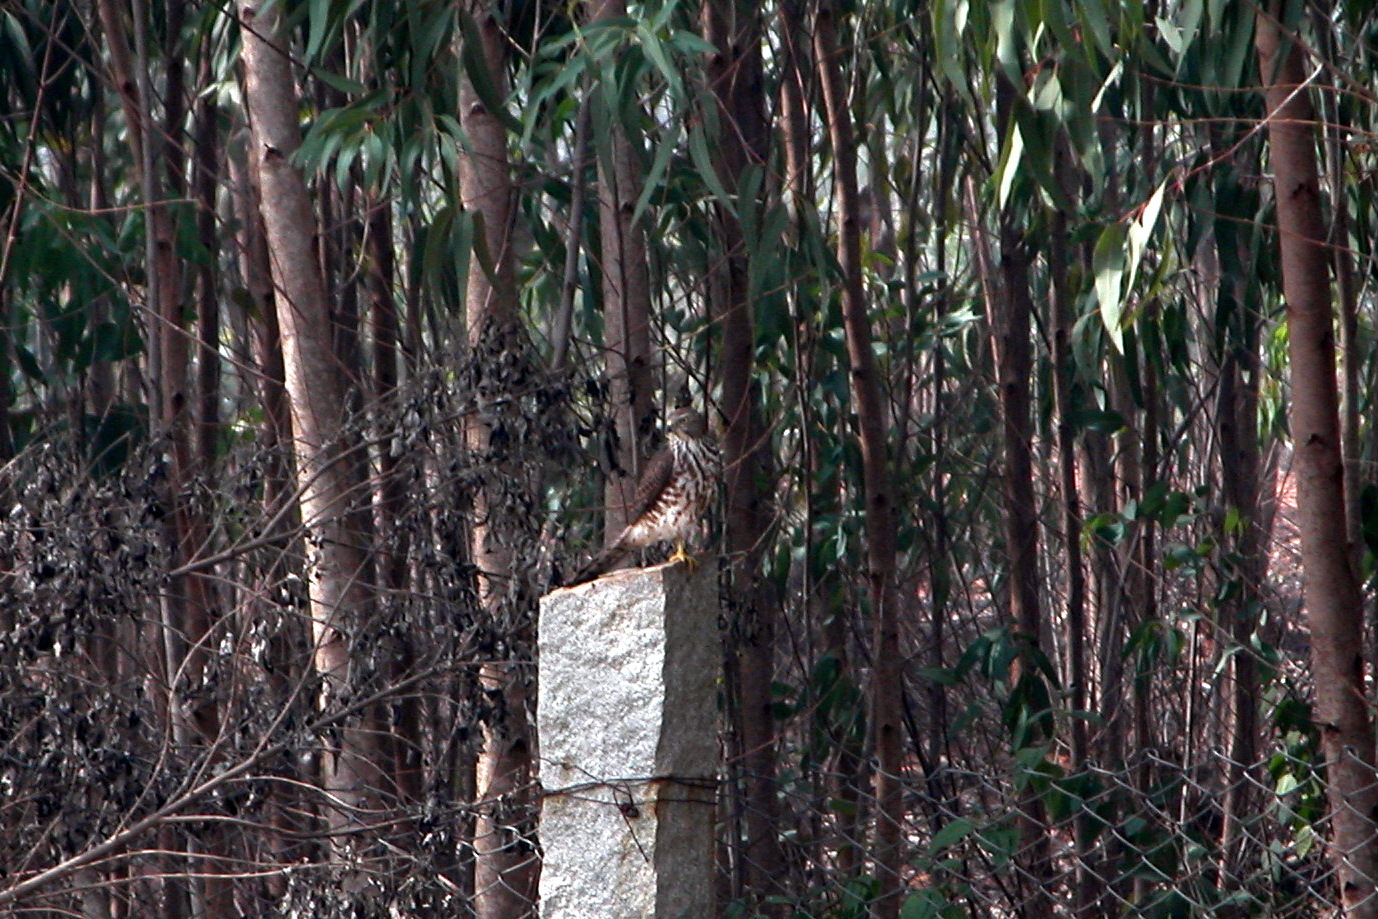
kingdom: Animalia
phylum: Chordata
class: Aves
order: Accipitriformes
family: Accipitridae
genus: Accipiter
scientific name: Accipiter badius
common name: Shikra
